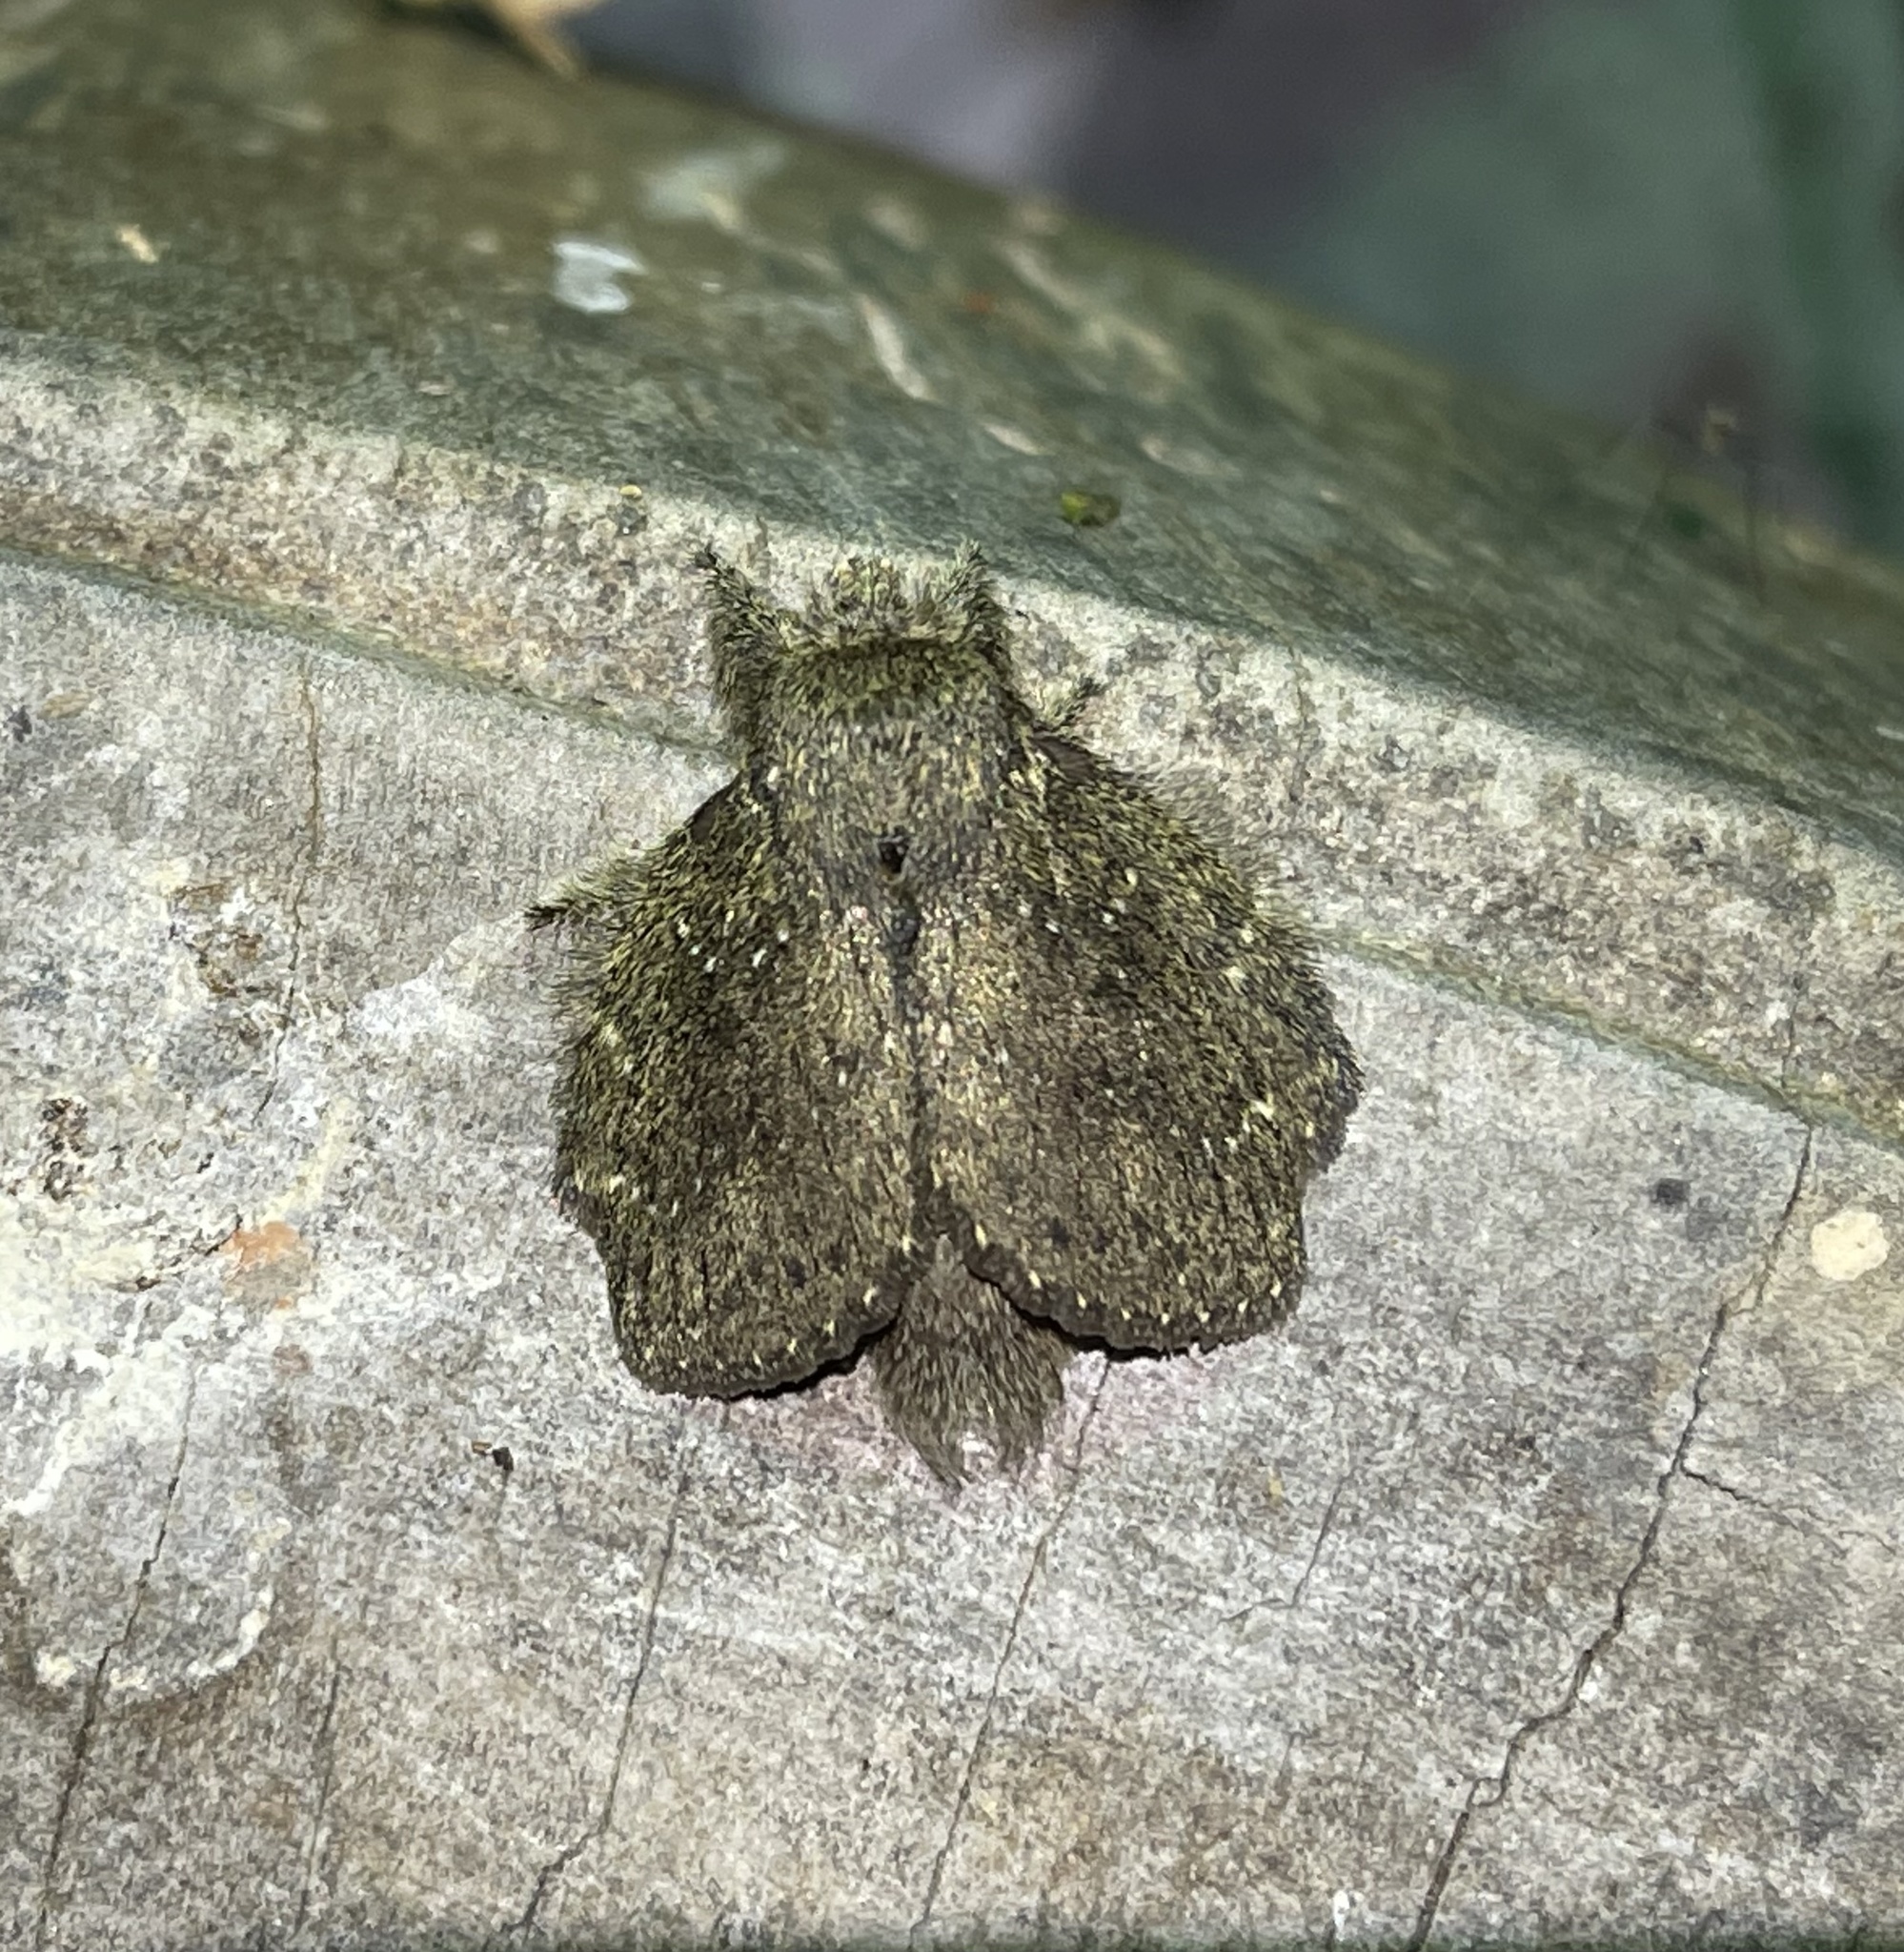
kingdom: Animalia
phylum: Arthropoda
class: Insecta
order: Lepidoptera
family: Lasiocampidae
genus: Euglyphis
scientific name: Euglyphis melancholica
